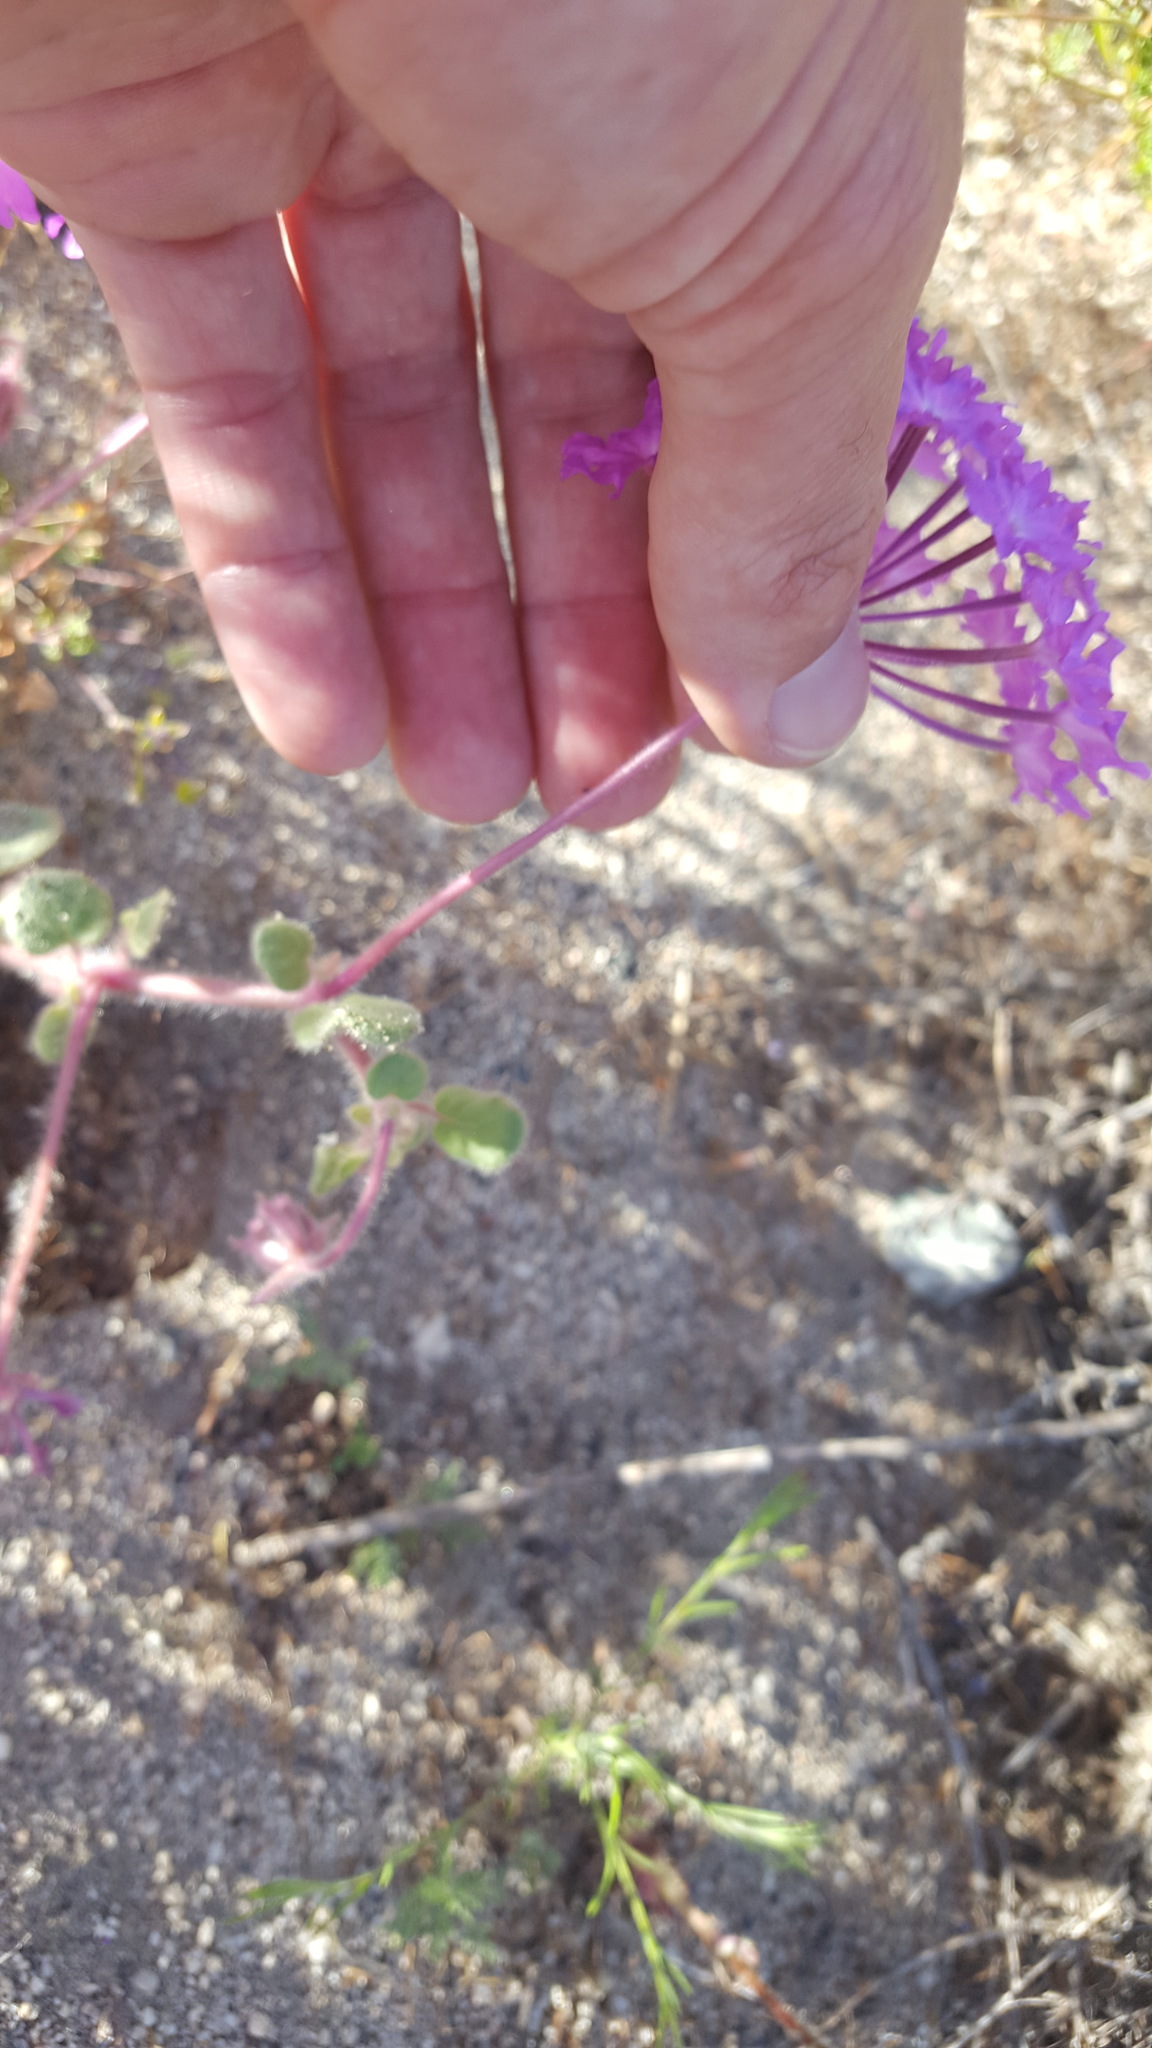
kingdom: Plantae
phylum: Tracheophyta
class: Magnoliopsida
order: Caryophyllales
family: Nyctaginaceae
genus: Abronia
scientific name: Abronia villosa
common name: Desert sand-verbena
